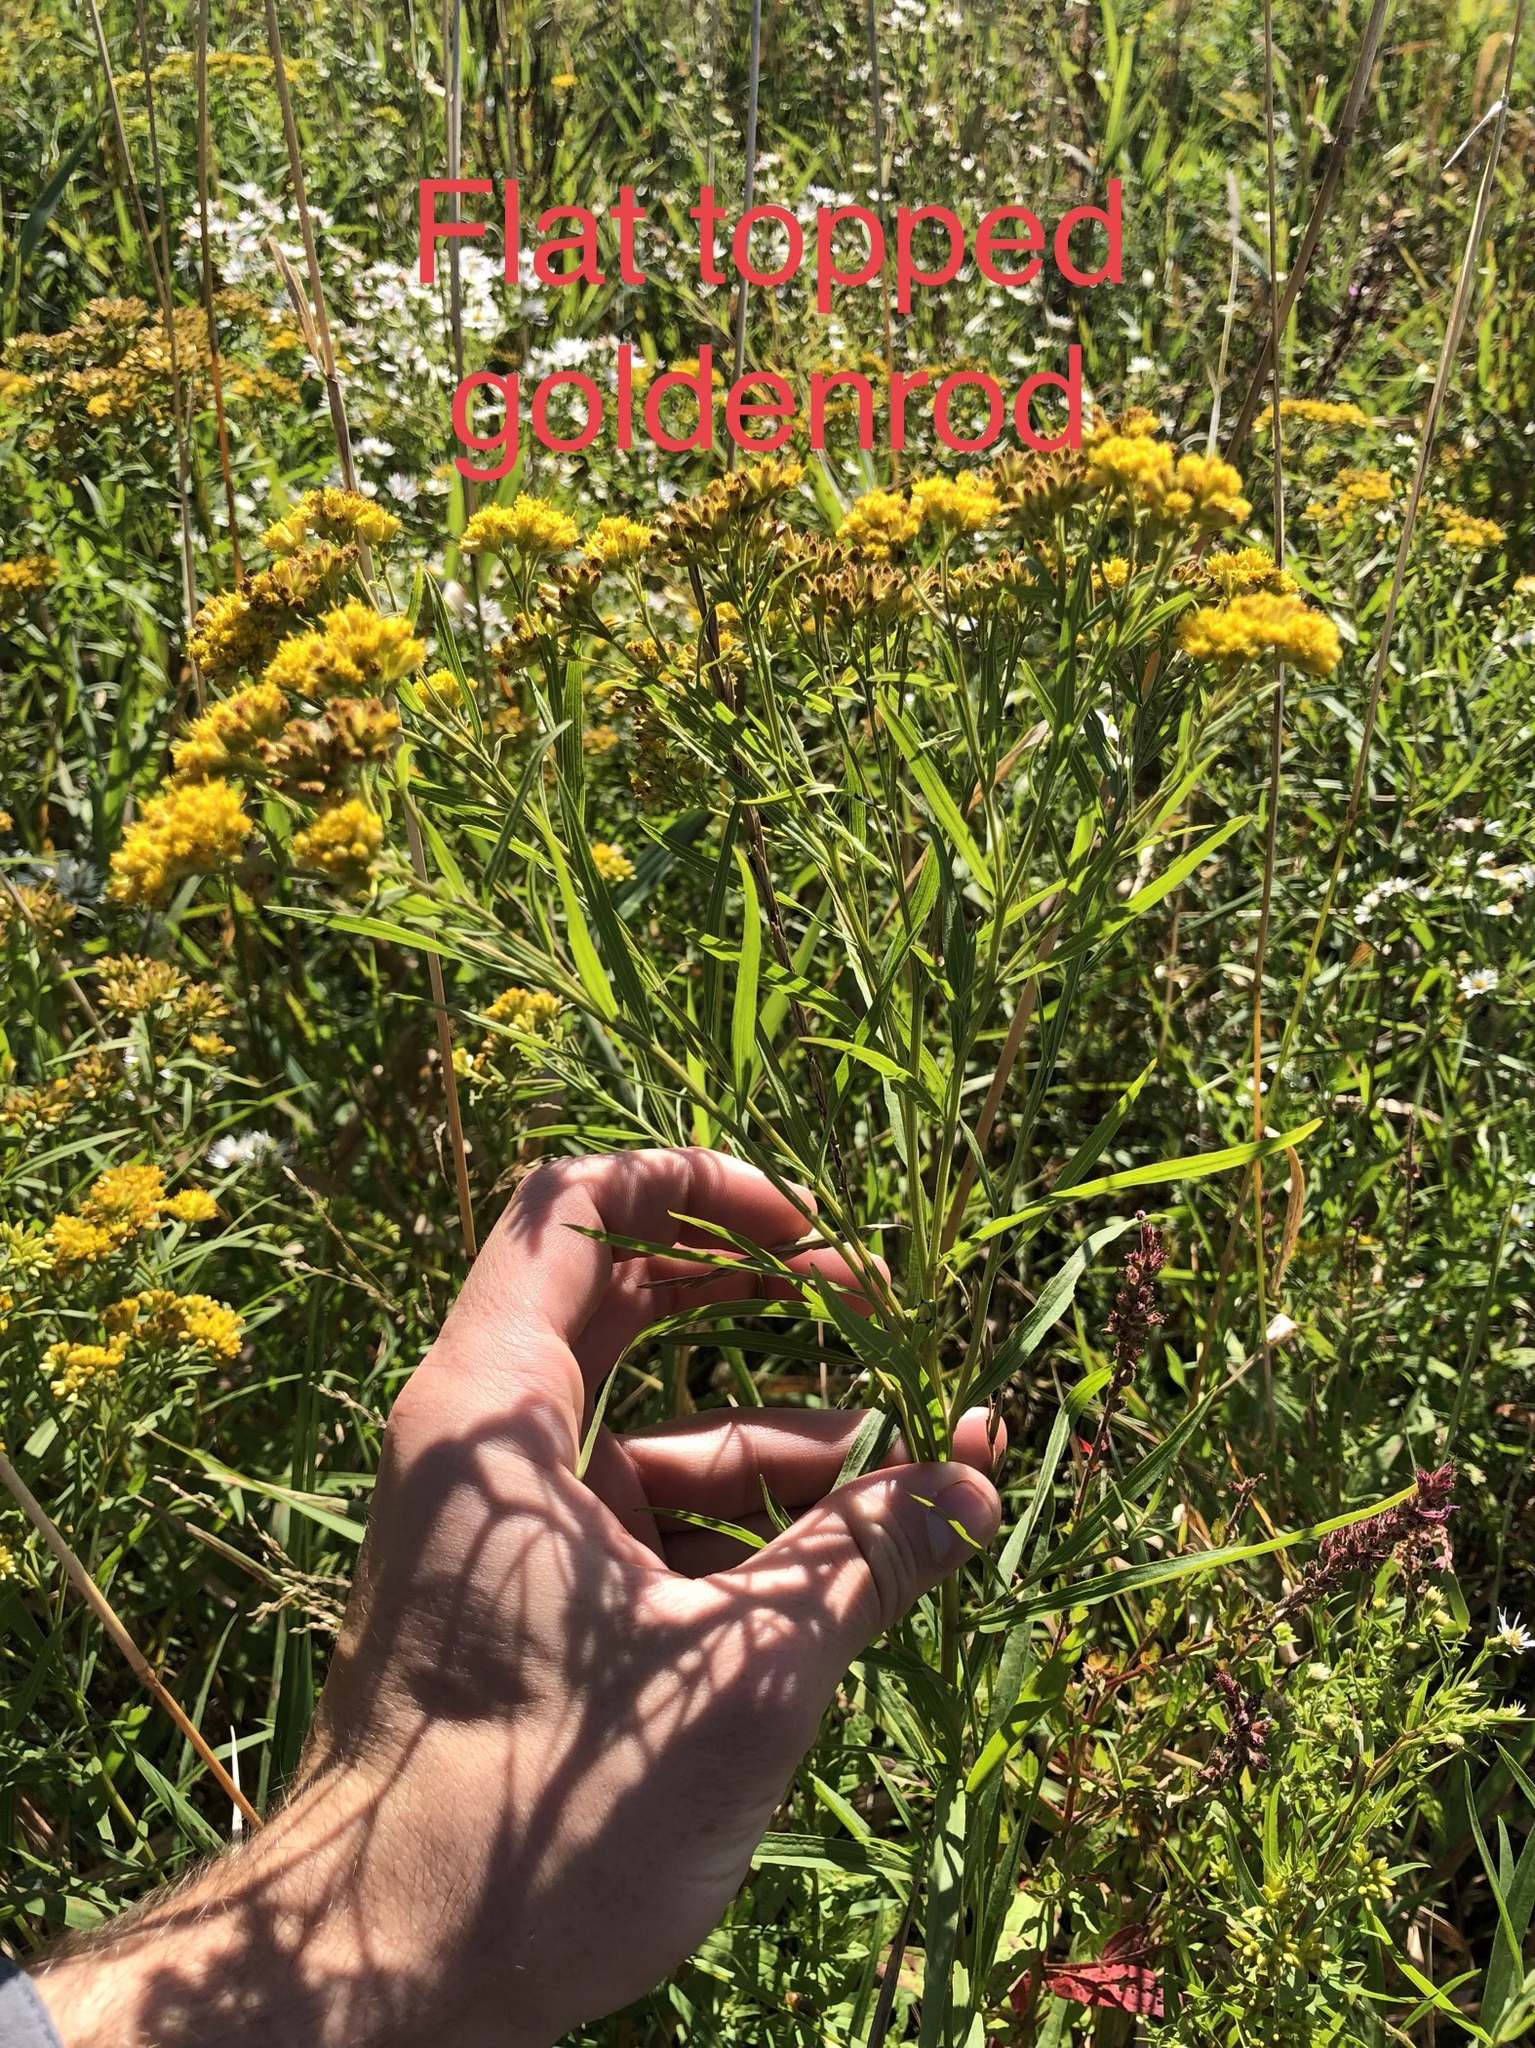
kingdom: Plantae
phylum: Tracheophyta
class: Magnoliopsida
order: Asterales
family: Asteraceae
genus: Euthamia
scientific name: Euthamia graminifolia
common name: Common goldentop
